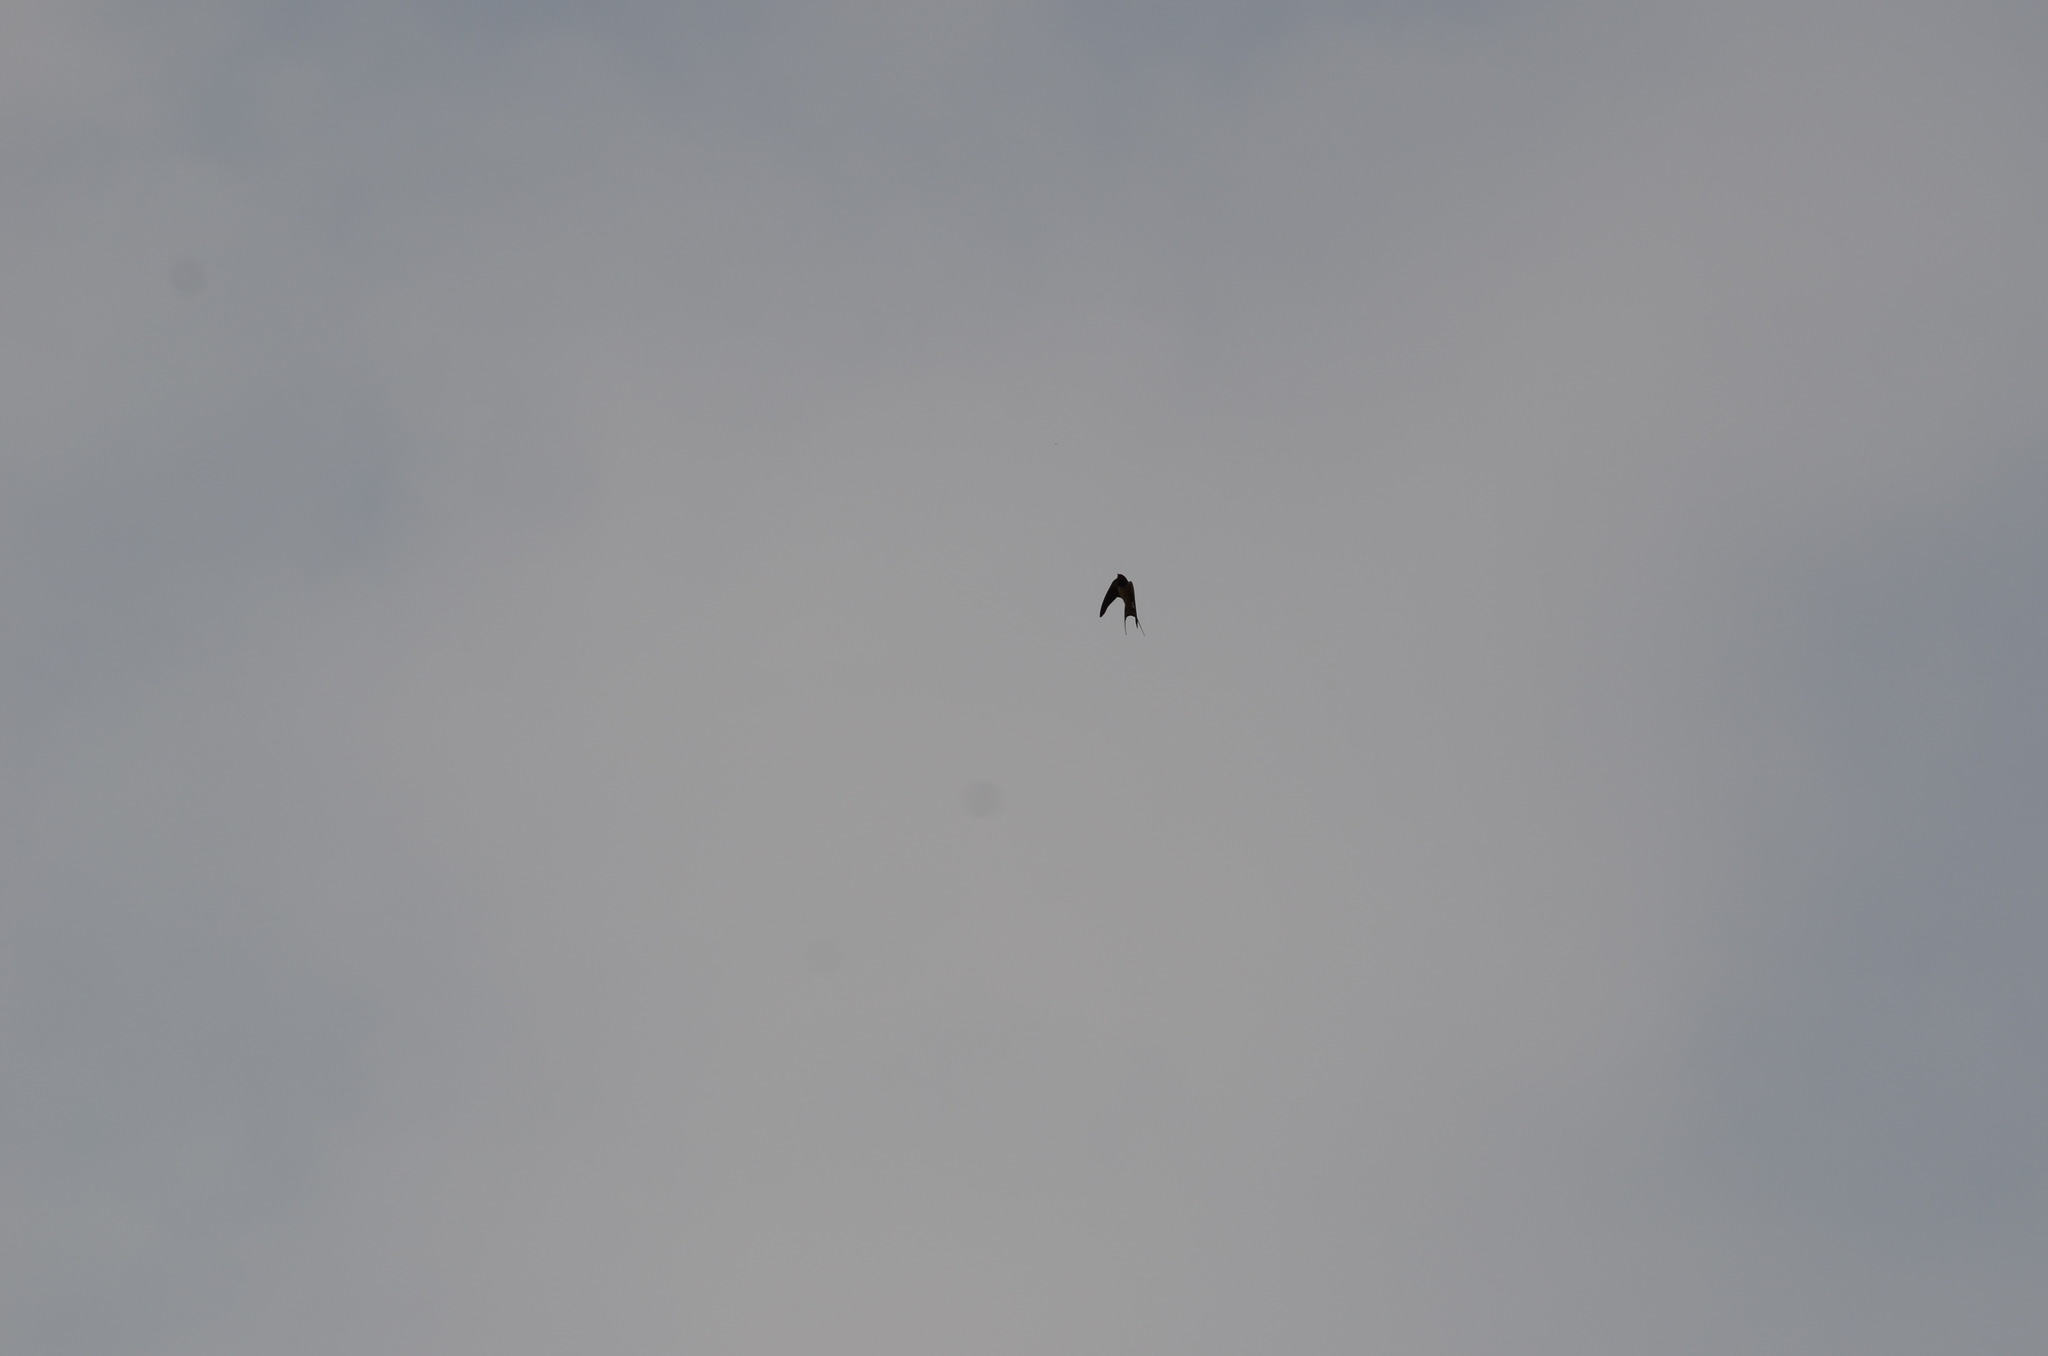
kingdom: Animalia
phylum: Chordata
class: Aves
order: Passeriformes
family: Hirundinidae
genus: Hirundo
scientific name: Hirundo rustica
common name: Barn swallow
